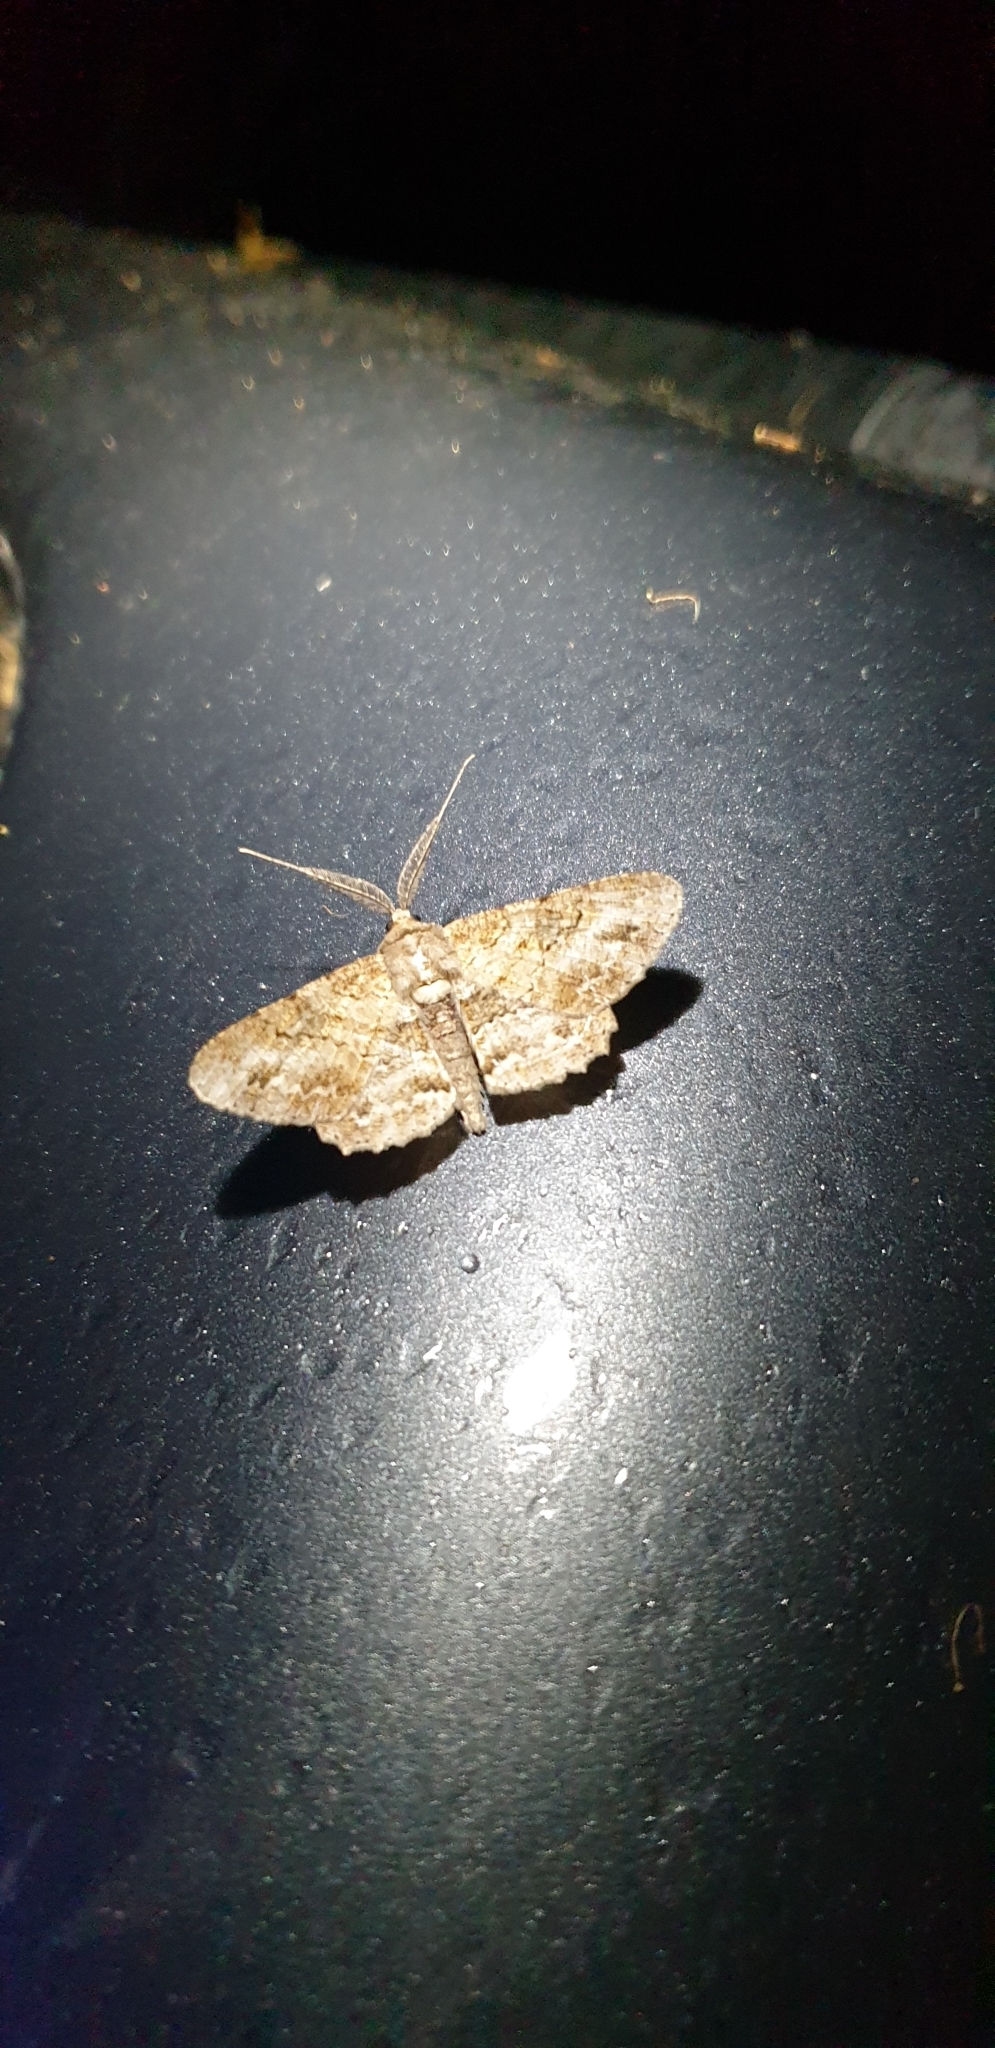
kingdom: Animalia
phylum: Arthropoda
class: Insecta
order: Lepidoptera
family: Geometridae
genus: Cleora
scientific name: Cleora repetita
